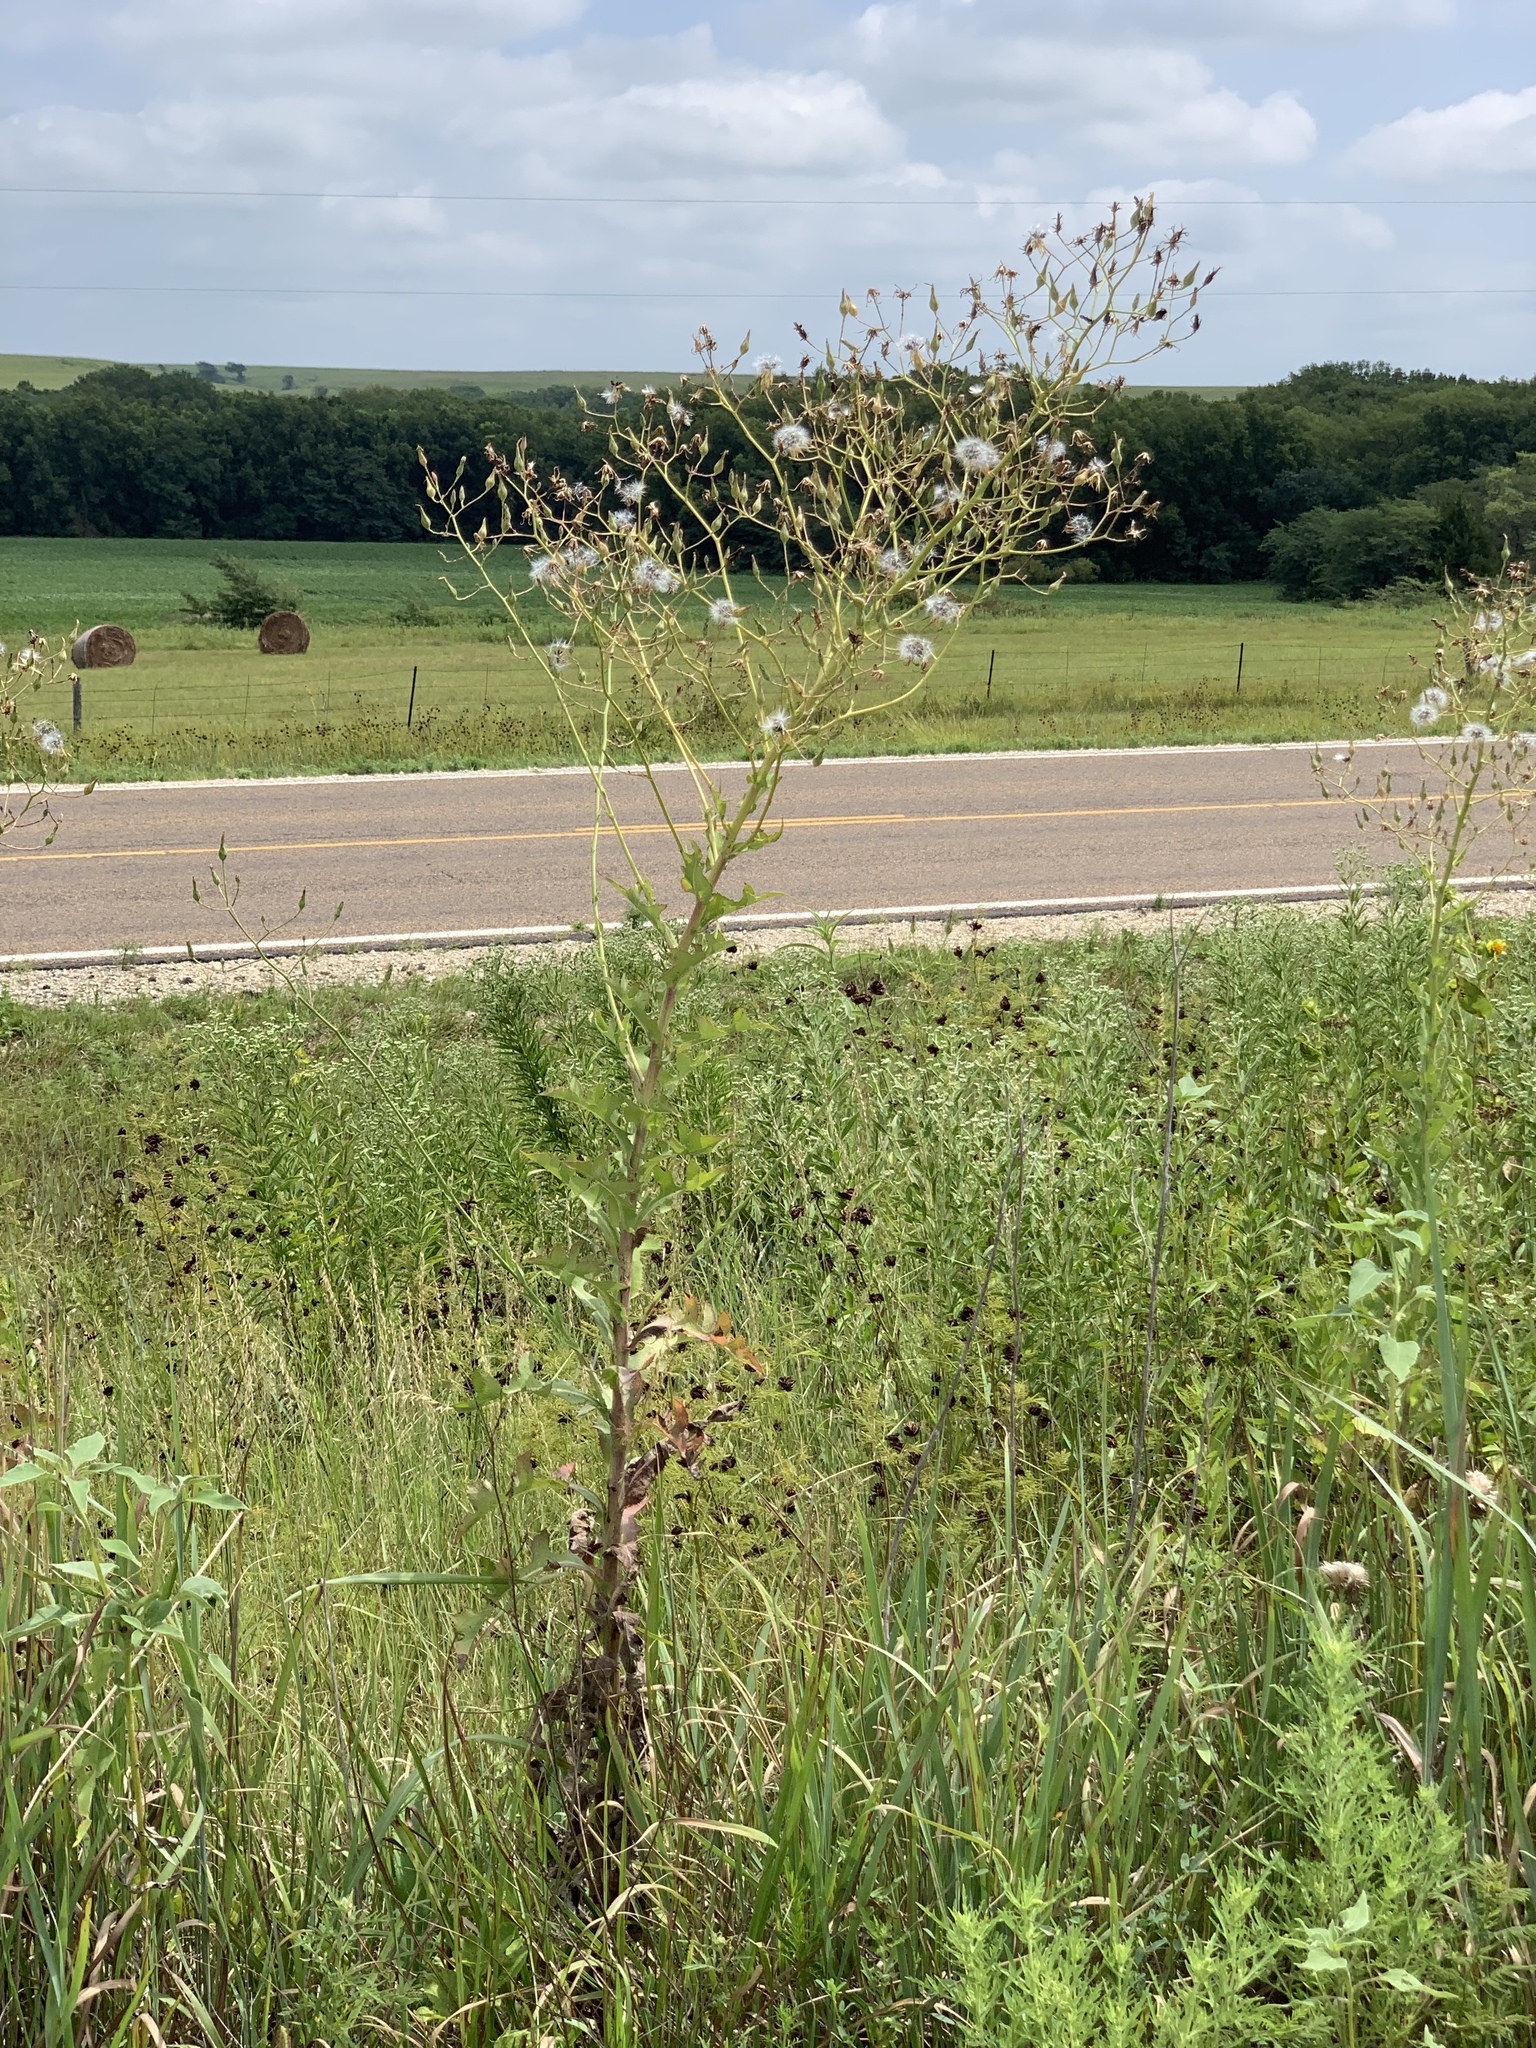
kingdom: Plantae
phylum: Tracheophyta
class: Magnoliopsida
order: Asterales
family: Asteraceae
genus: Lactuca
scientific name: Lactuca serriola
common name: Prickly lettuce
